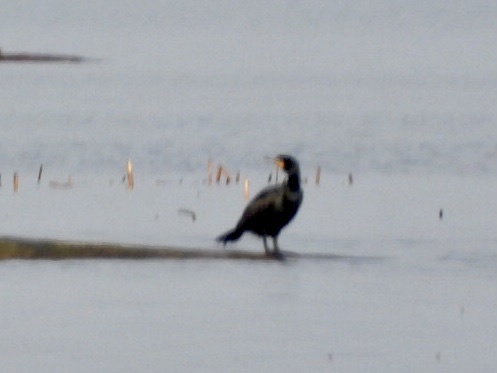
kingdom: Animalia
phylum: Chordata
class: Aves
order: Suliformes
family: Phalacrocoracidae
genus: Phalacrocorax
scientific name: Phalacrocorax auritus
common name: Double-crested cormorant
